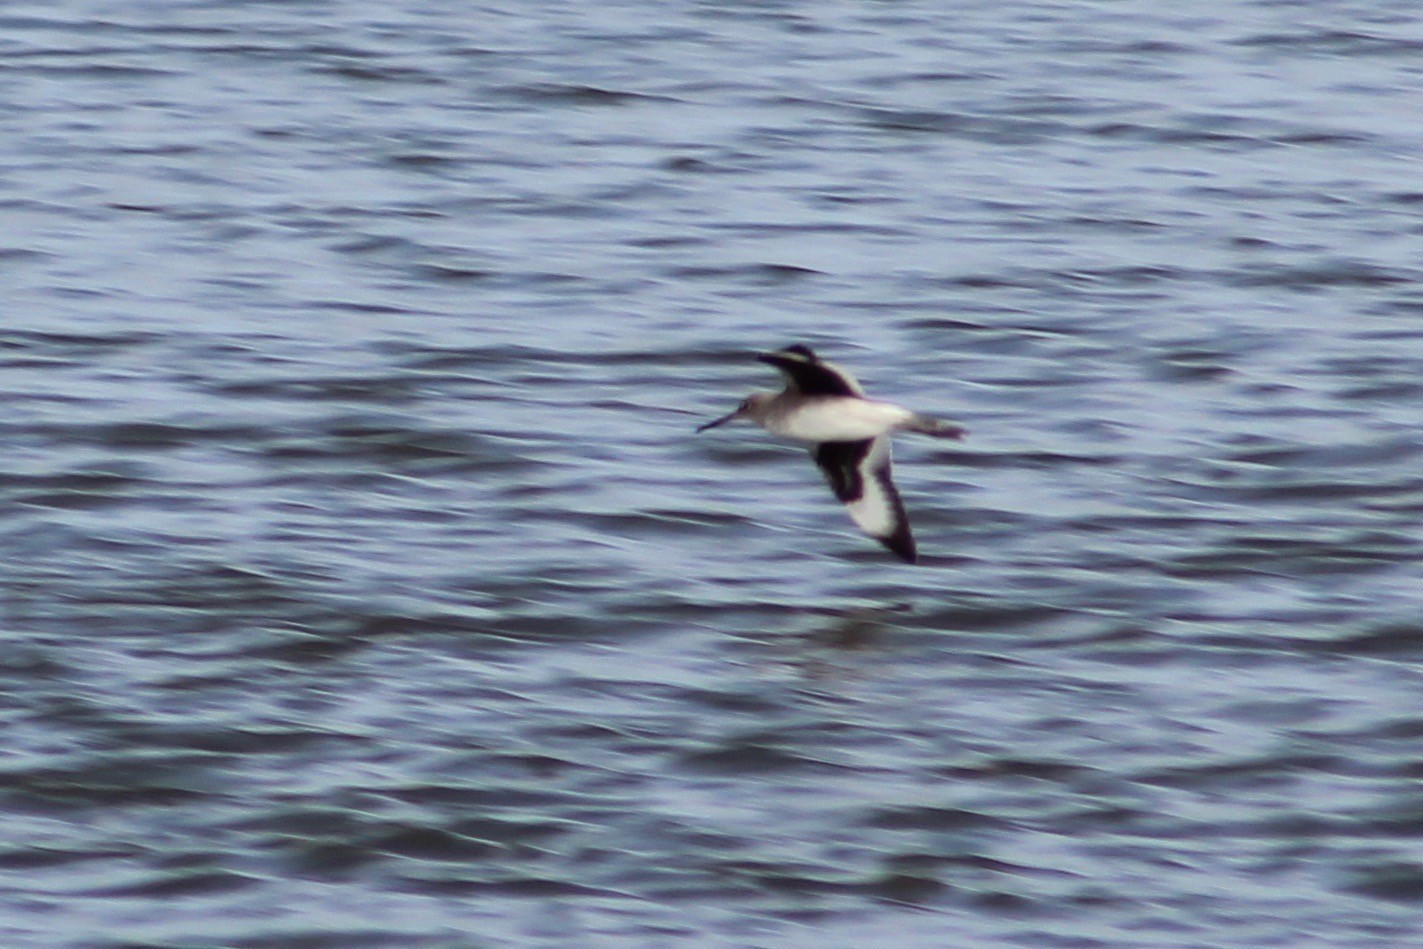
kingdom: Animalia
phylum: Chordata
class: Aves
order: Charadriiformes
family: Scolopacidae
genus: Tringa
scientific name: Tringa semipalmata
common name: Willet
